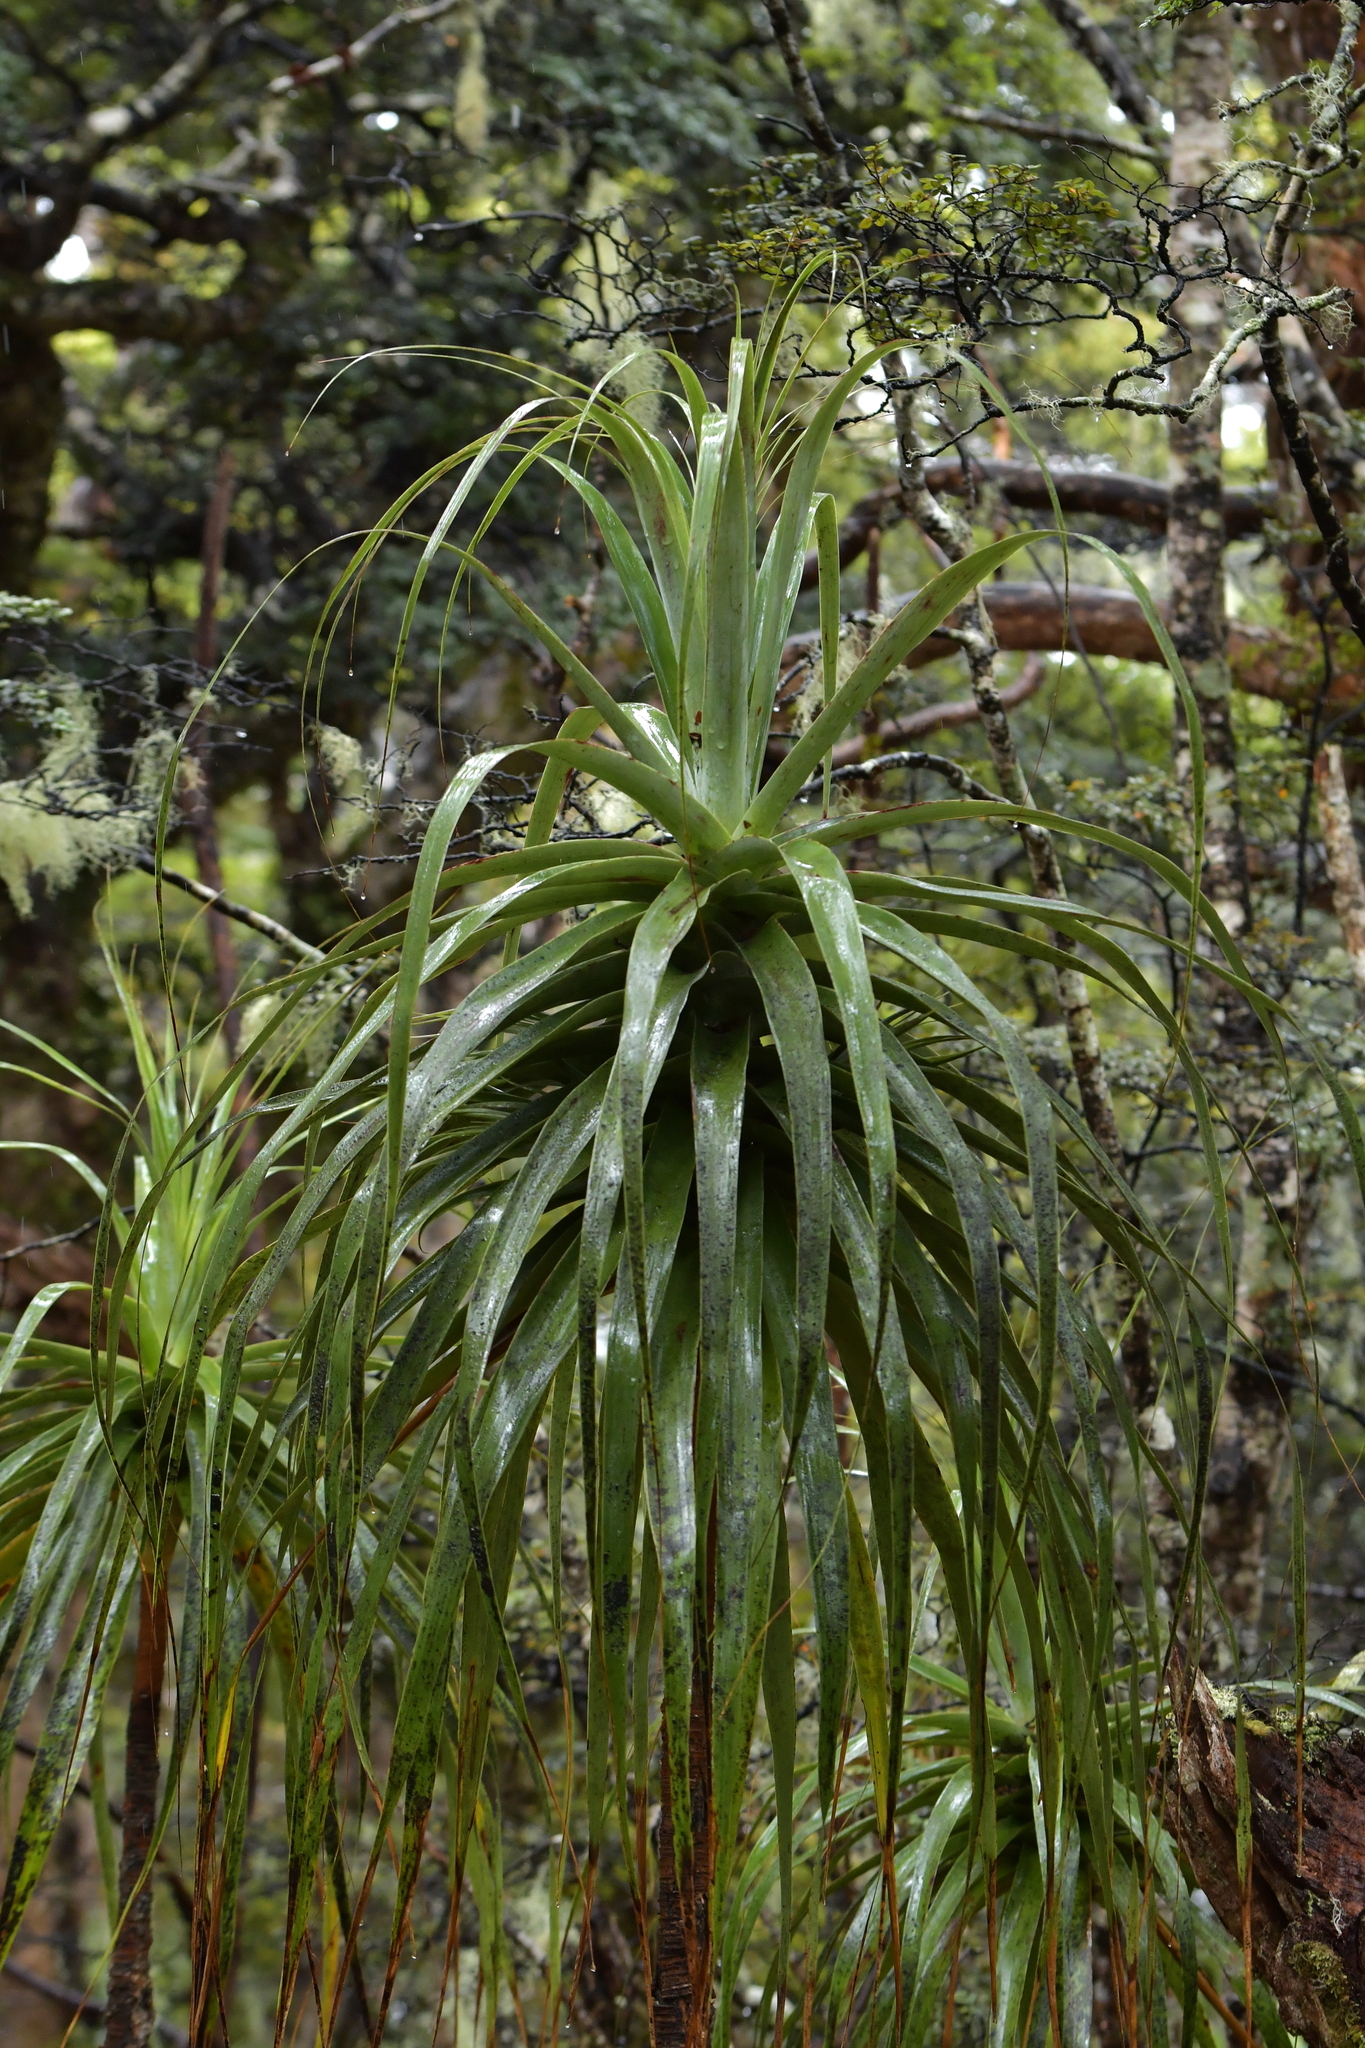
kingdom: Plantae
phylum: Tracheophyta
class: Magnoliopsida
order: Ericales
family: Ericaceae
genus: Dracophyllum
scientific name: Dracophyllum traversii
